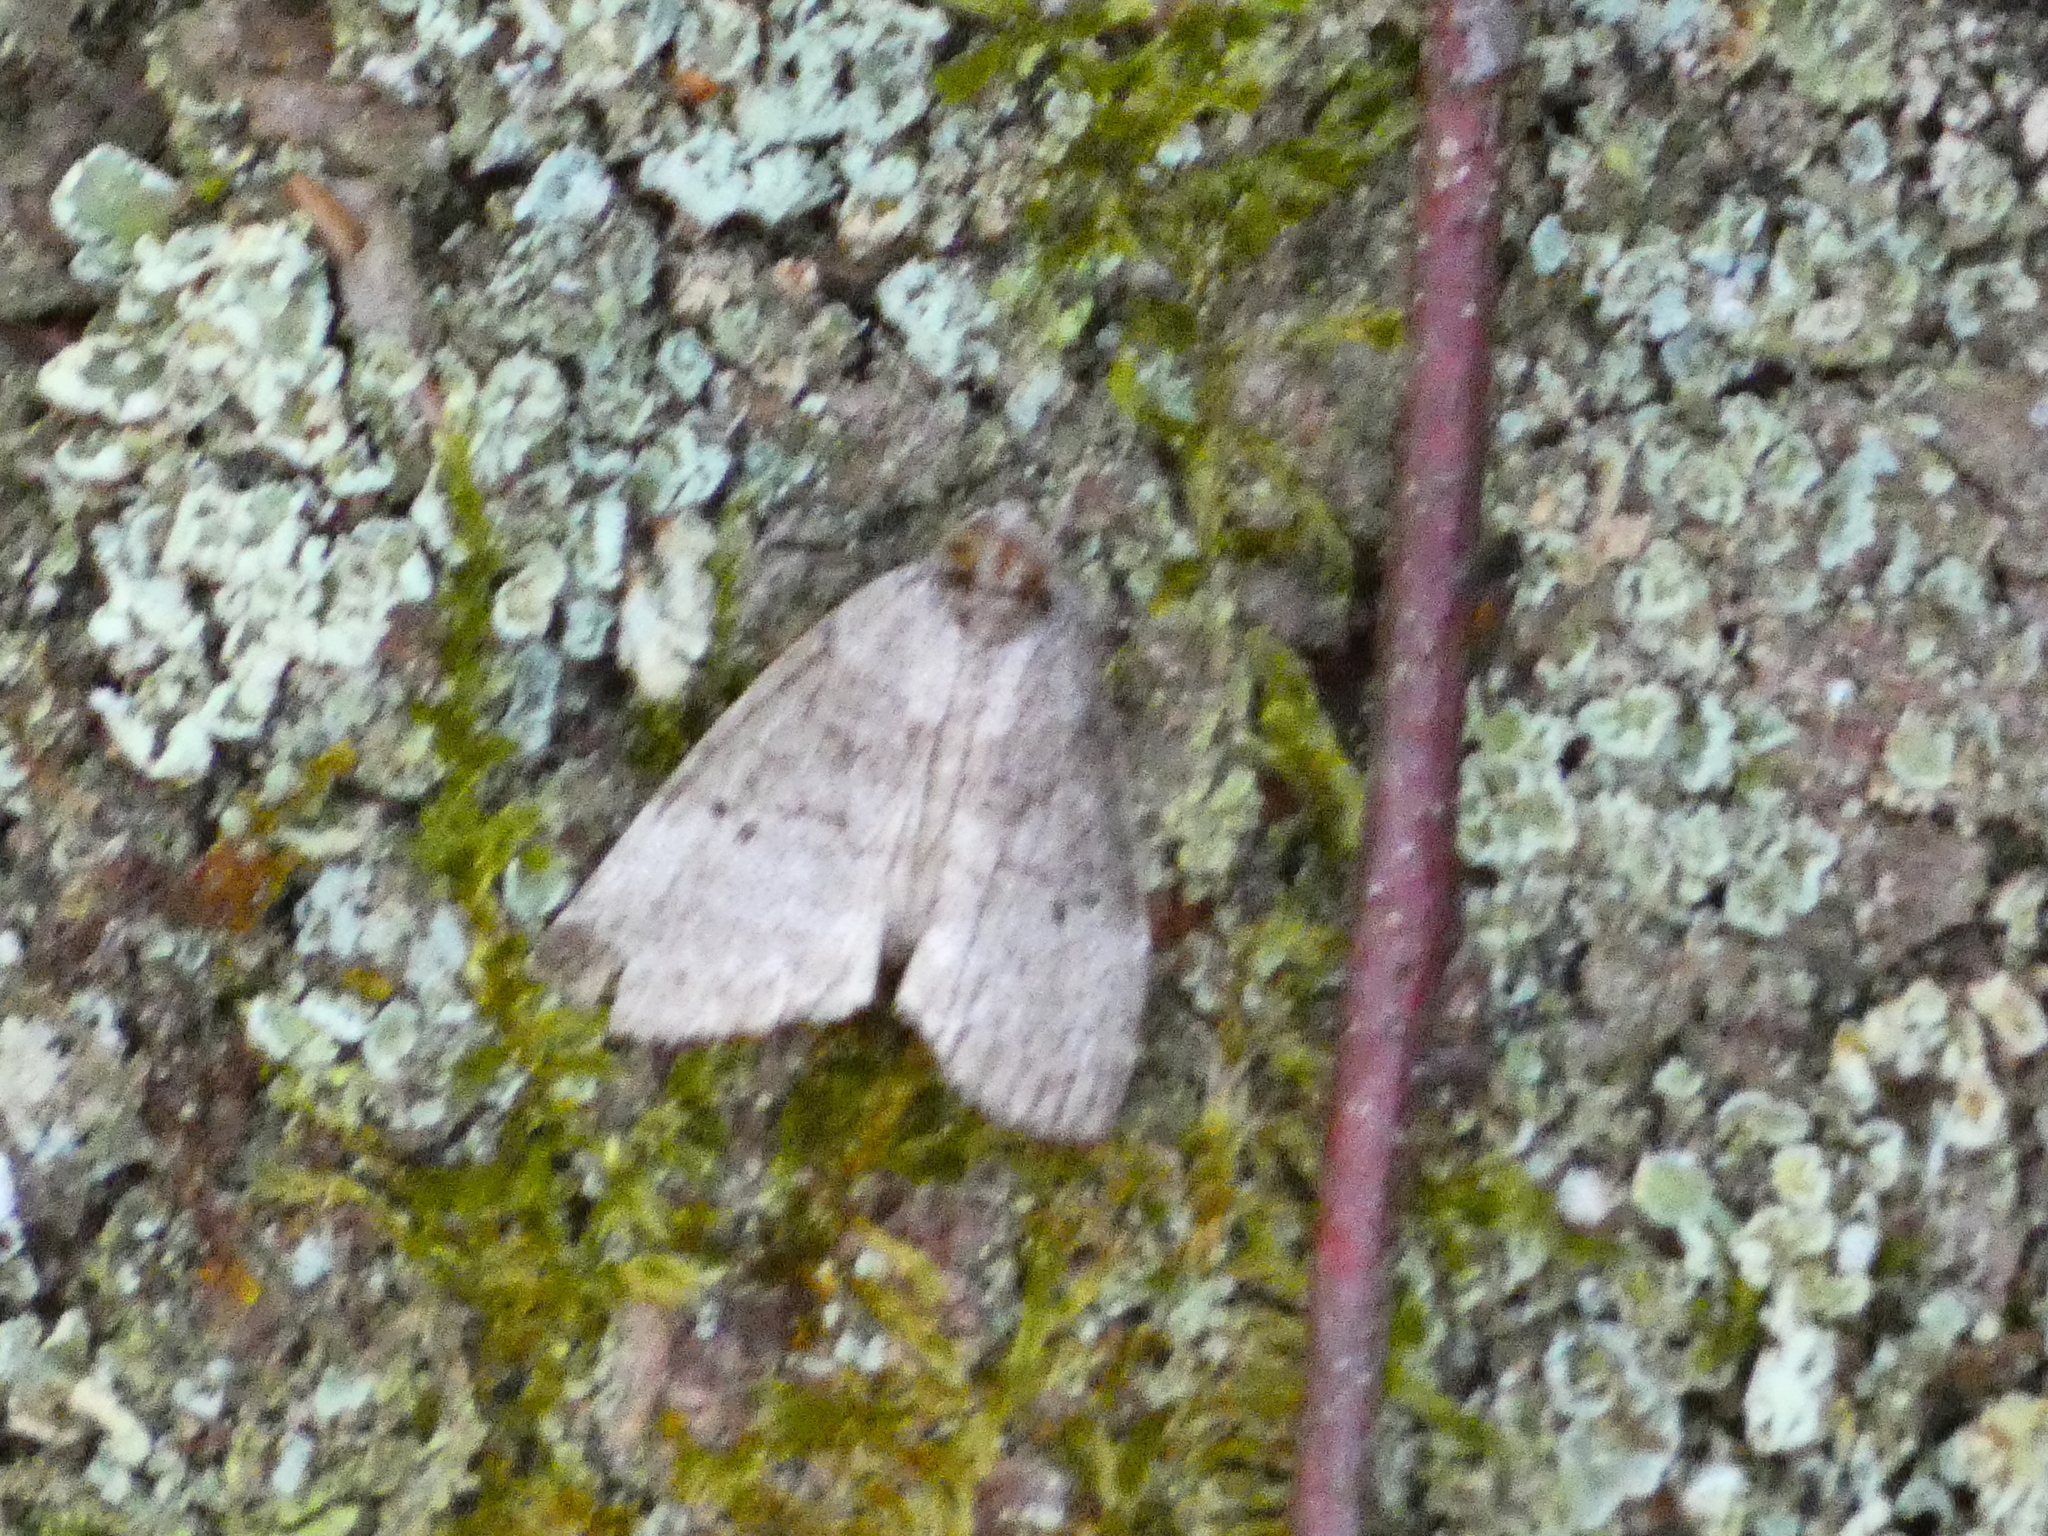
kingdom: Animalia
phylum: Arthropoda
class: Insecta
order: Lepidoptera
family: Drepanidae
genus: Ochropacha
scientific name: Ochropacha duplaris
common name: Common lutestring
